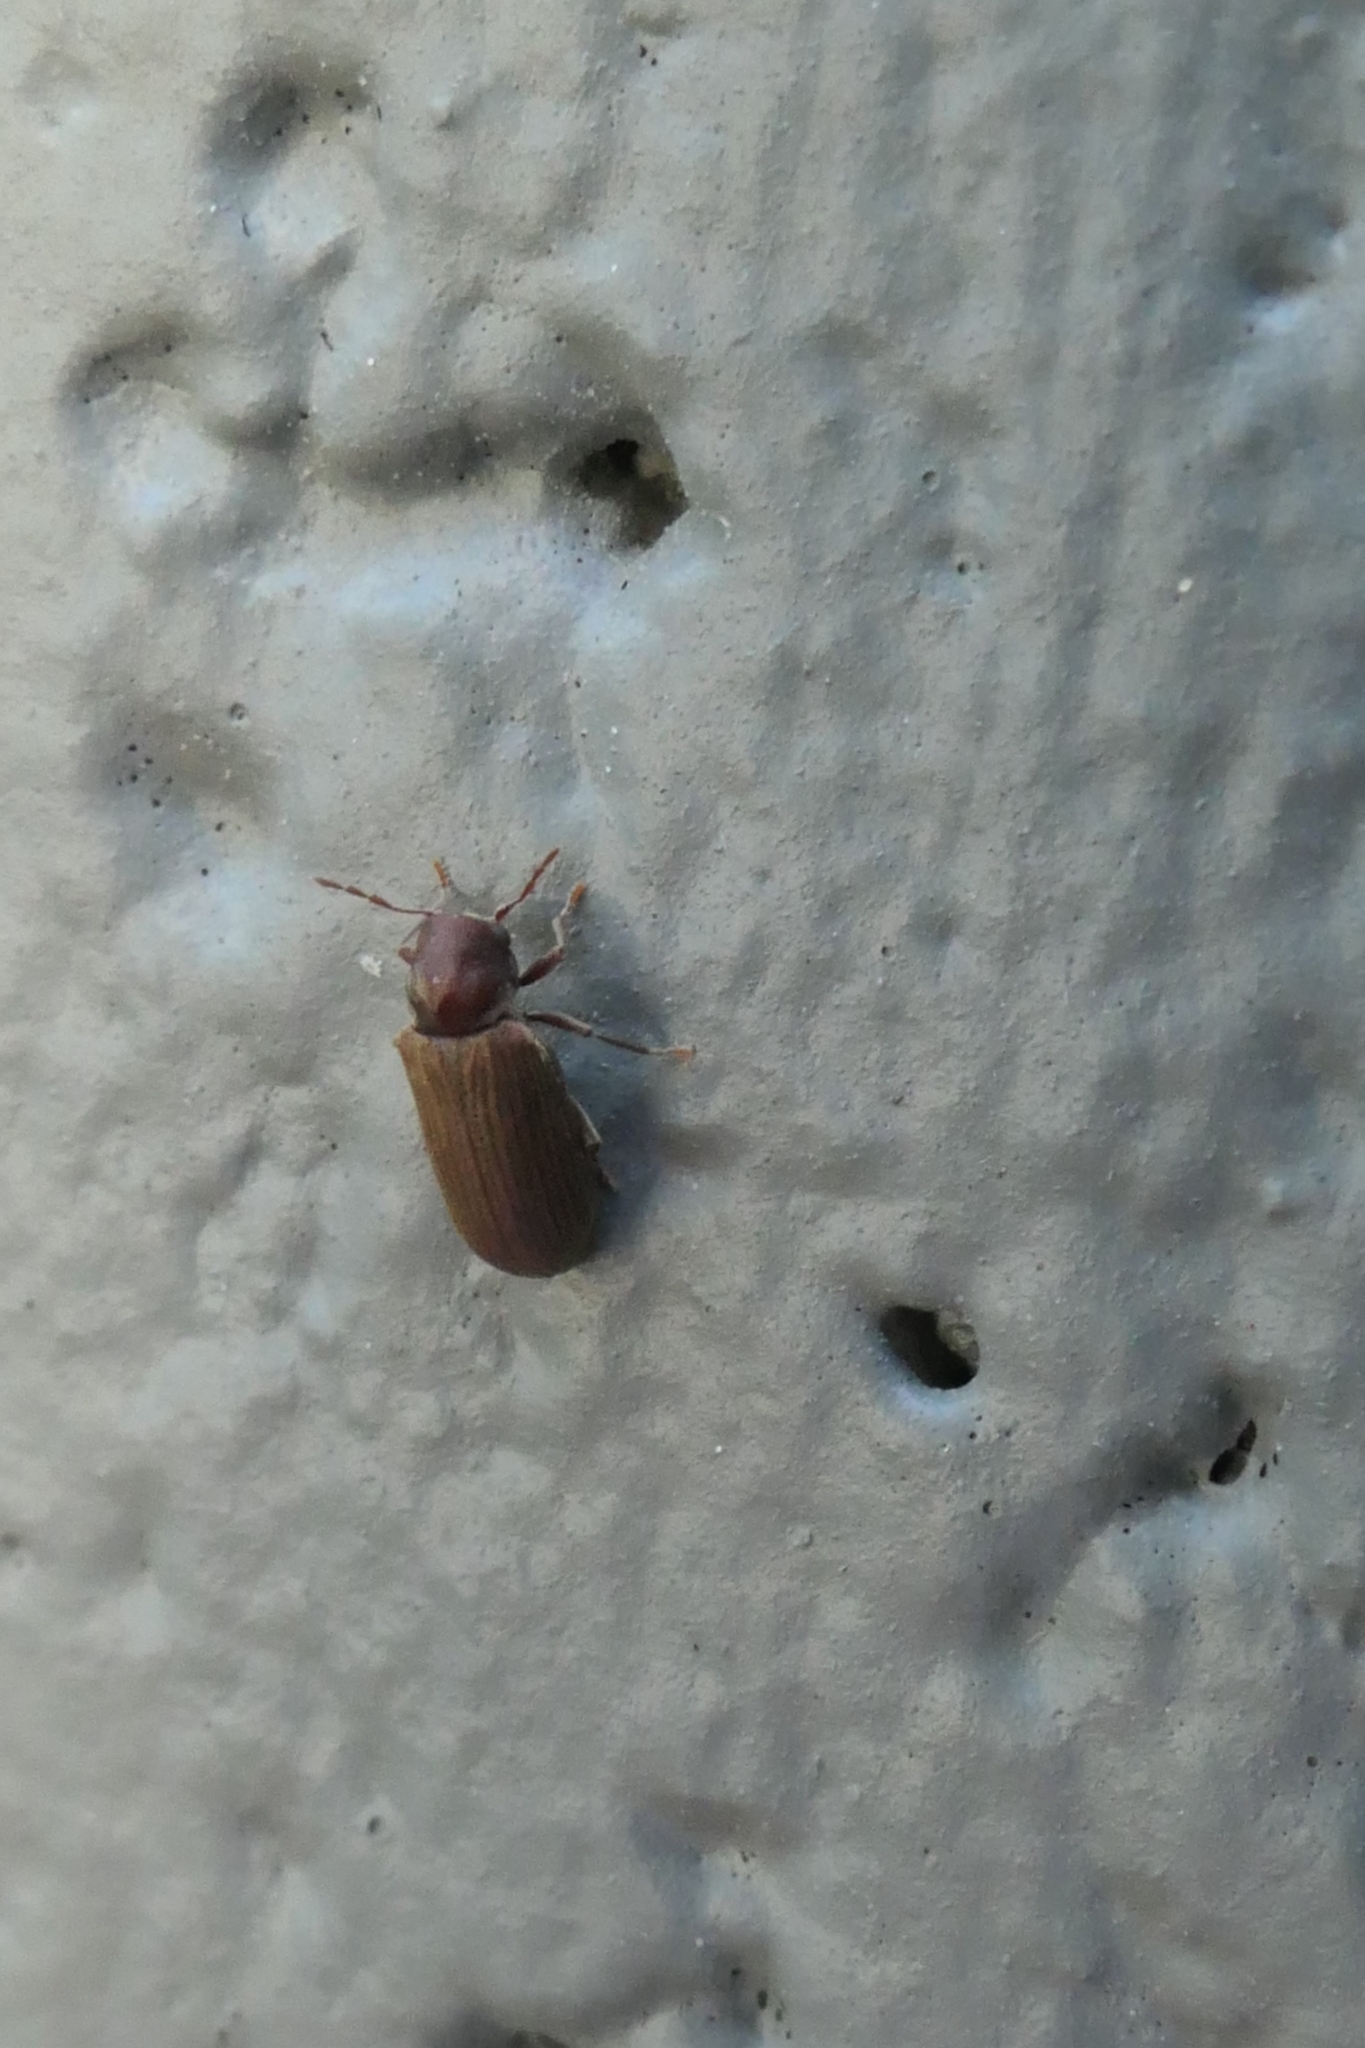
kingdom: Animalia
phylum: Arthropoda
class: Insecta
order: Coleoptera
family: Anobiidae
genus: Anobium
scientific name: Anobium punctatum
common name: Furniture beetle
